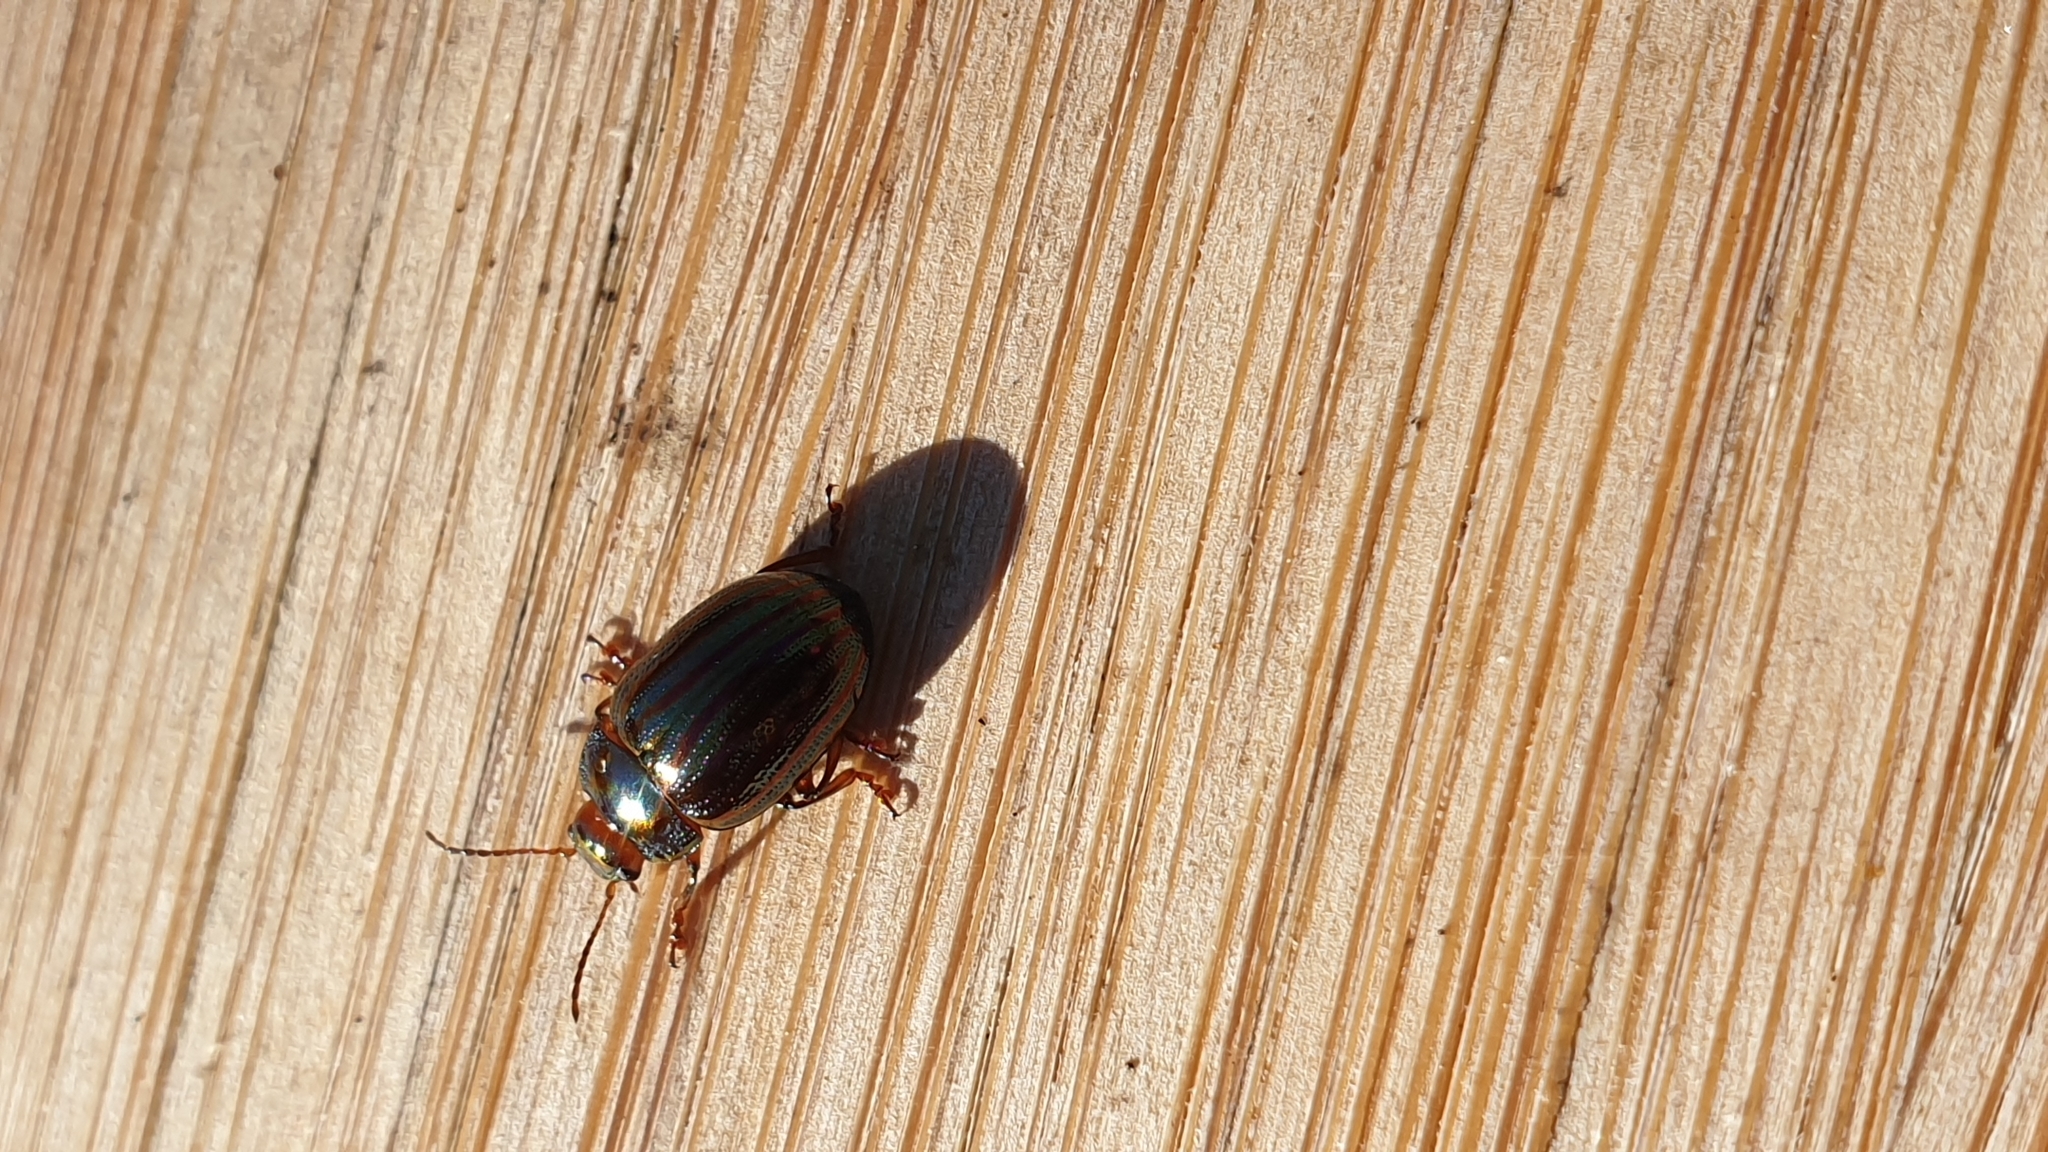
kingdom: Animalia
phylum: Arthropoda
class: Insecta
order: Coleoptera
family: Chrysomelidae
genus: Chrysolina
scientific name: Chrysolina americana
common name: Rosemary beetle
